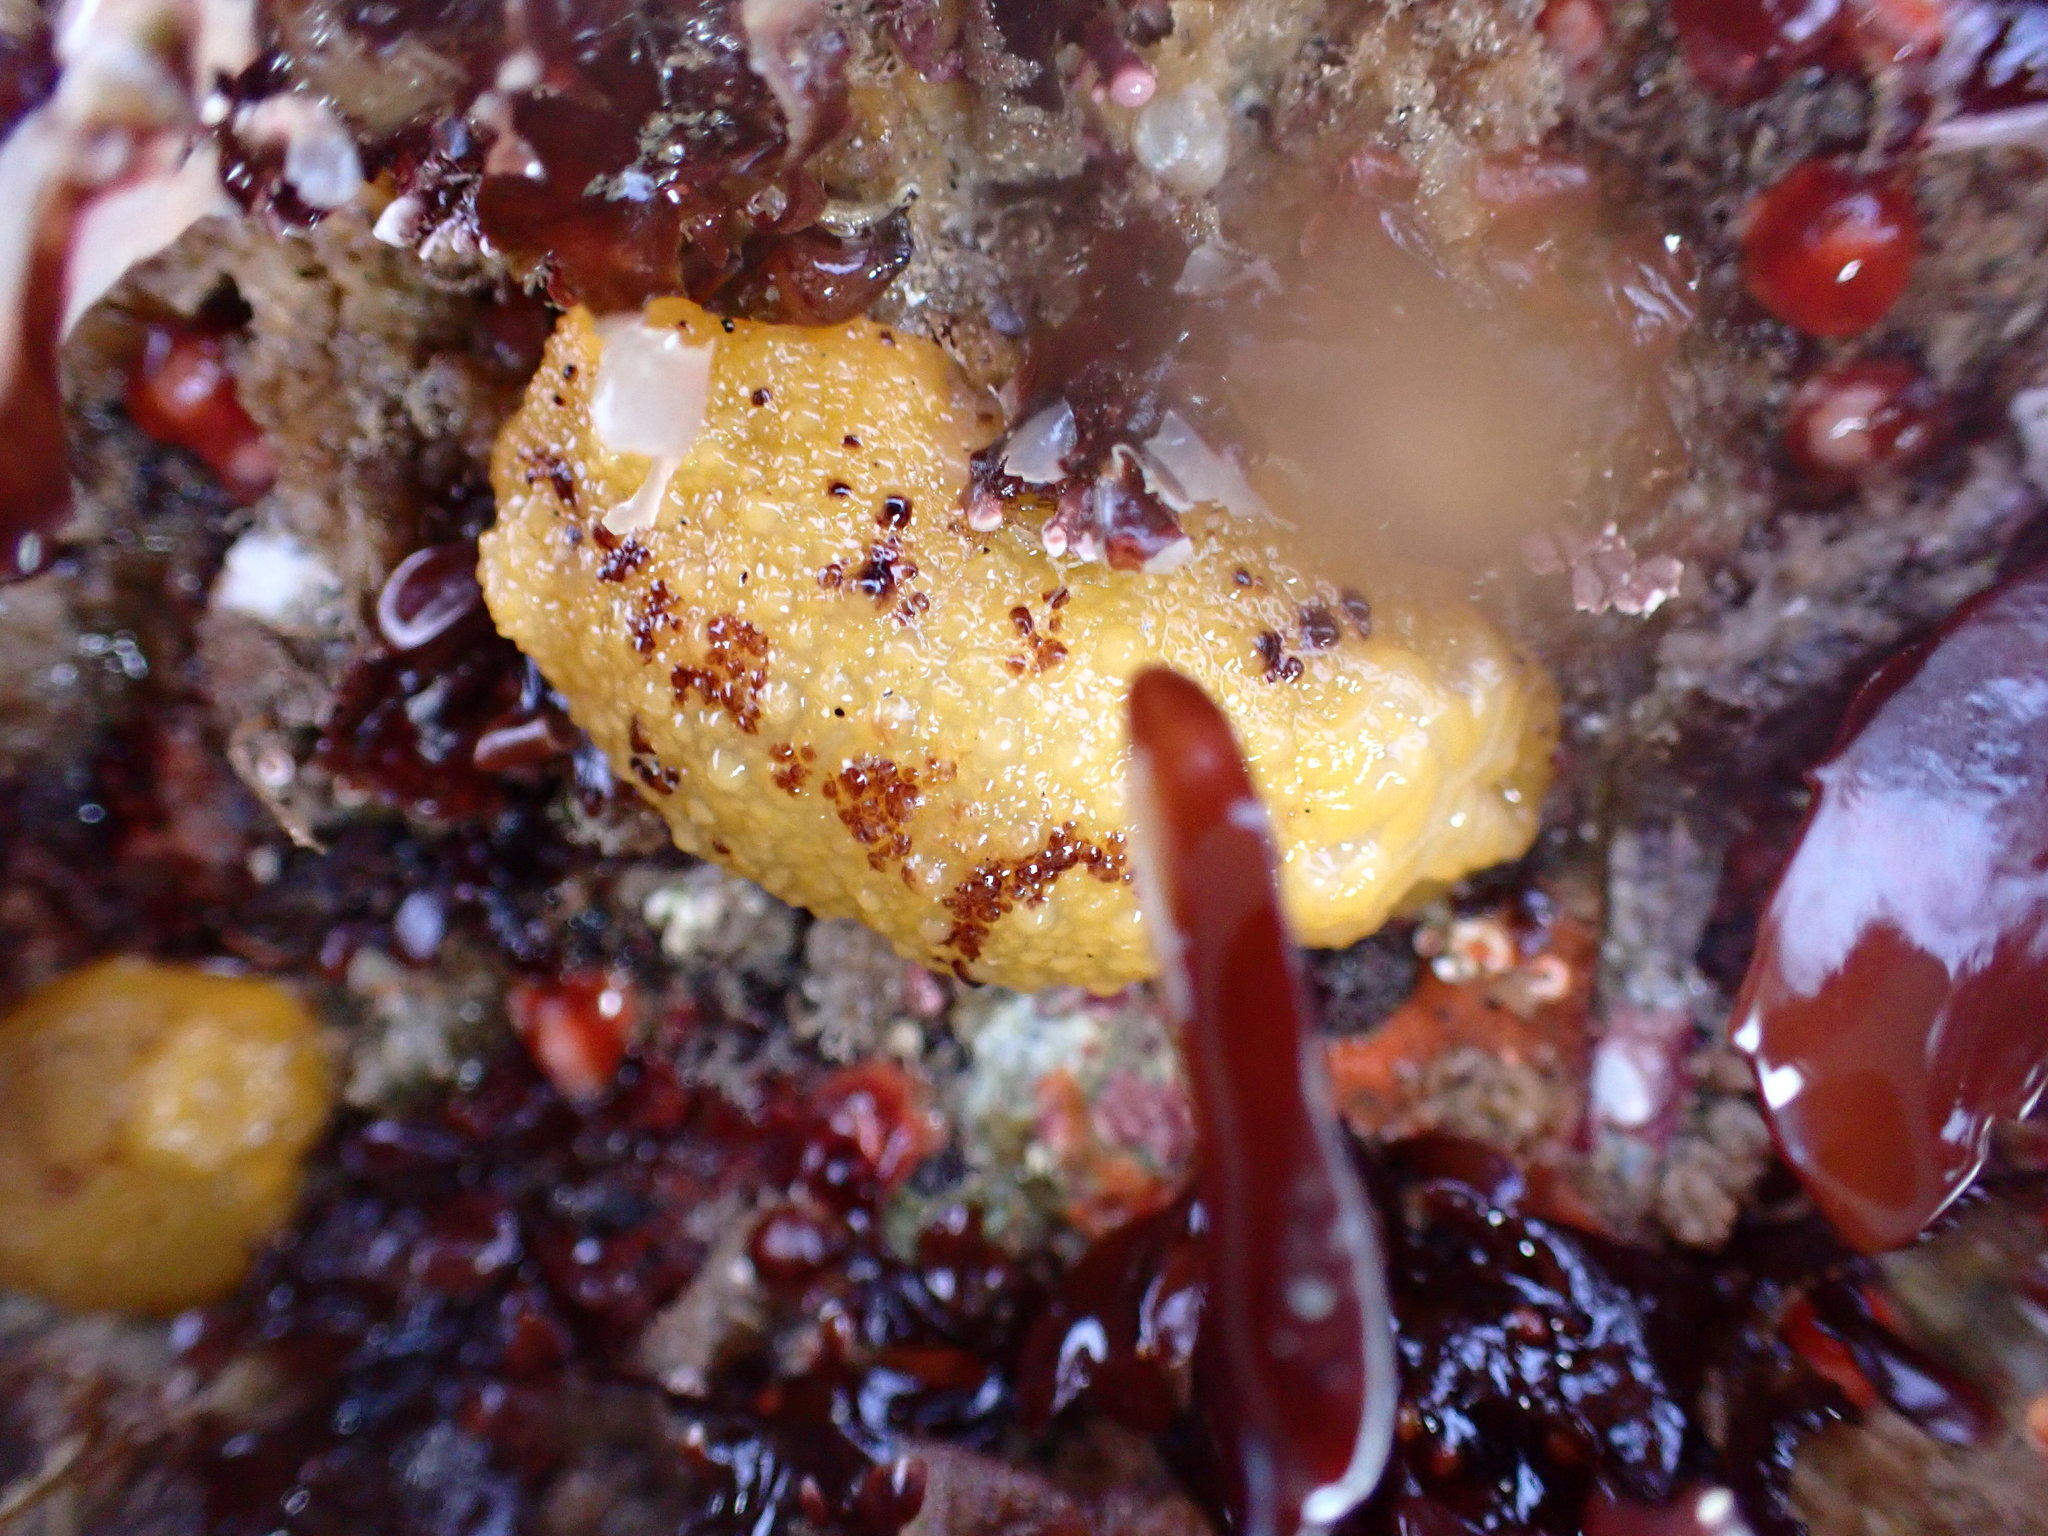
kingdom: Animalia
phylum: Mollusca
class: Gastropoda
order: Nudibranchia
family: Dorididae
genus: Doris
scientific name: Doris montereyensis
